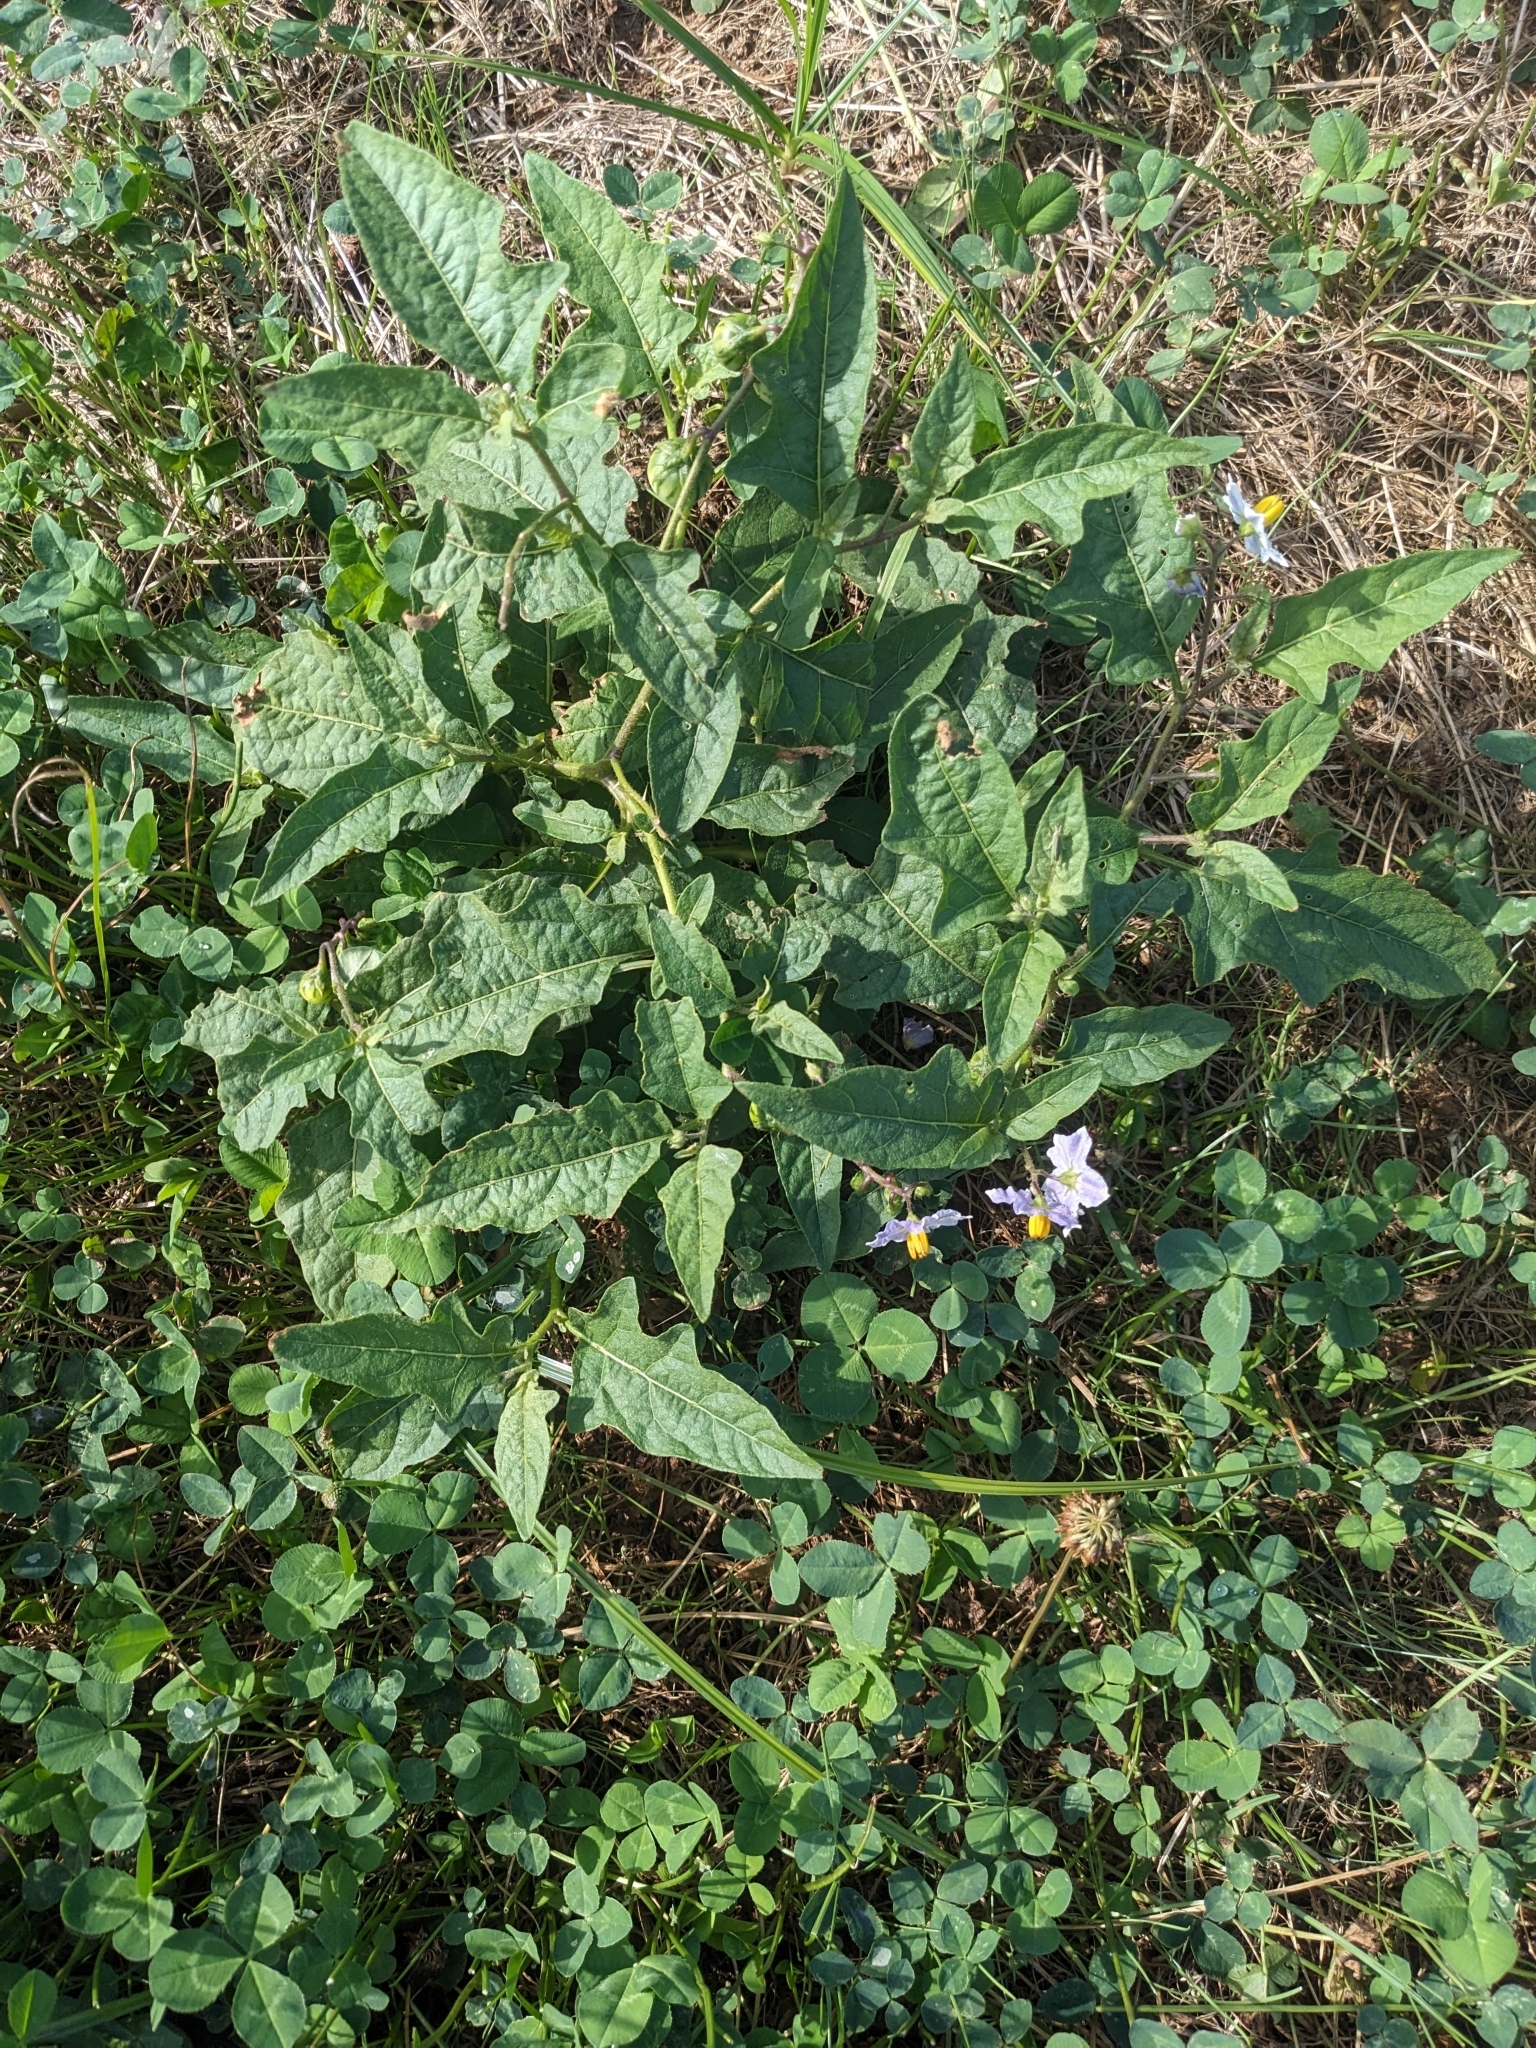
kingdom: Plantae
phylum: Tracheophyta
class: Magnoliopsida
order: Solanales
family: Solanaceae
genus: Solanum
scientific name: Solanum carolinense
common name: Horse-nettle
